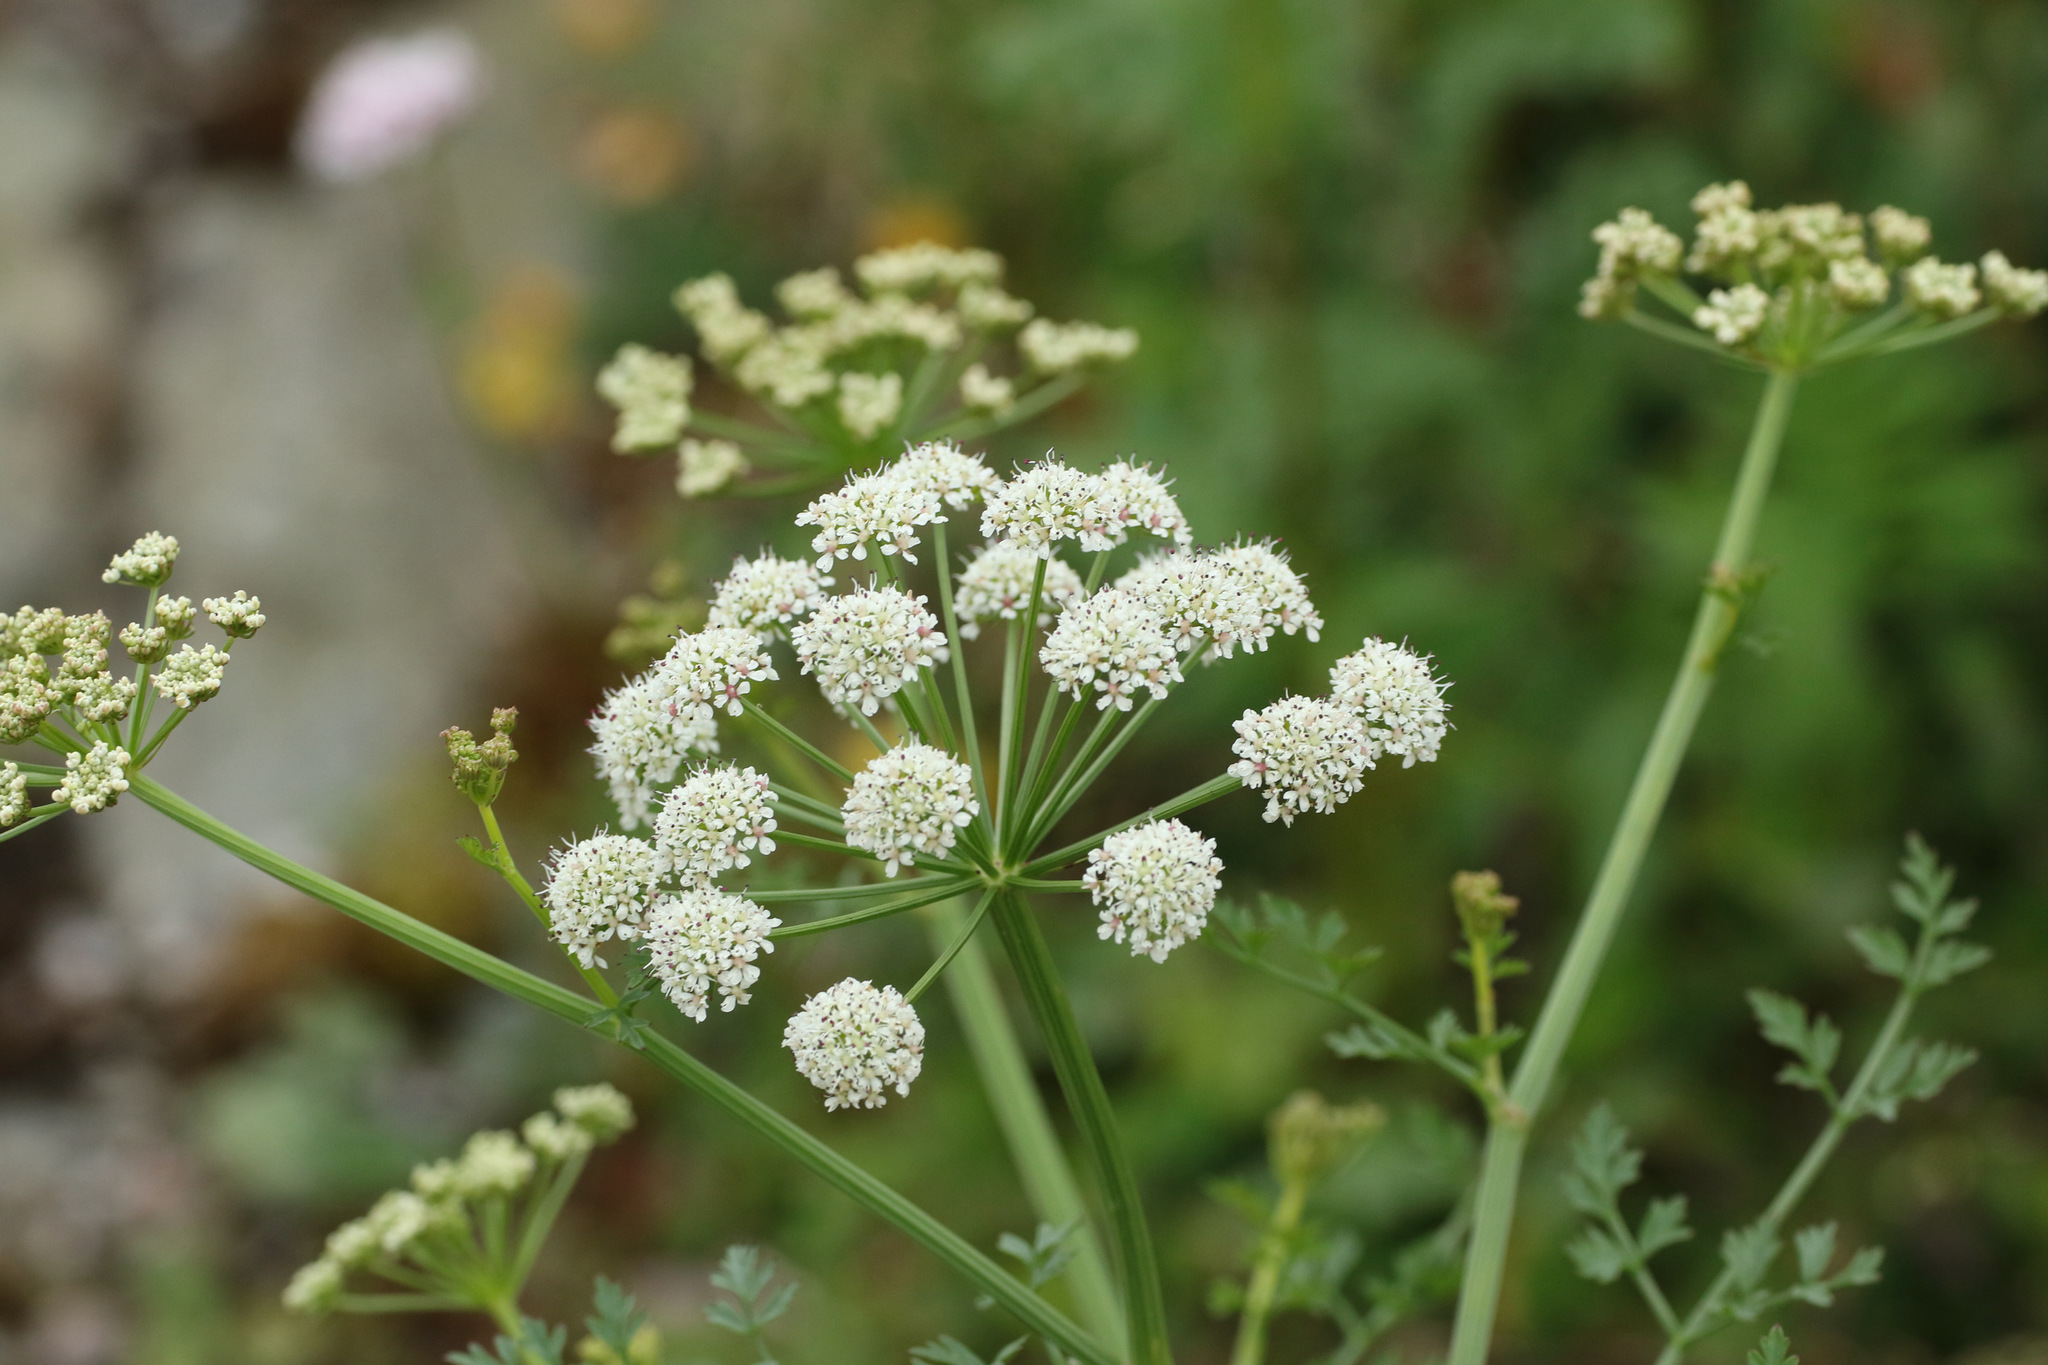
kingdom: Plantae
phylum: Tracheophyta
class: Magnoliopsida
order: Apiales
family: Apiaceae
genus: Oenanthe
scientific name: Oenanthe crocata
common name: Hemlock water-dropwort
